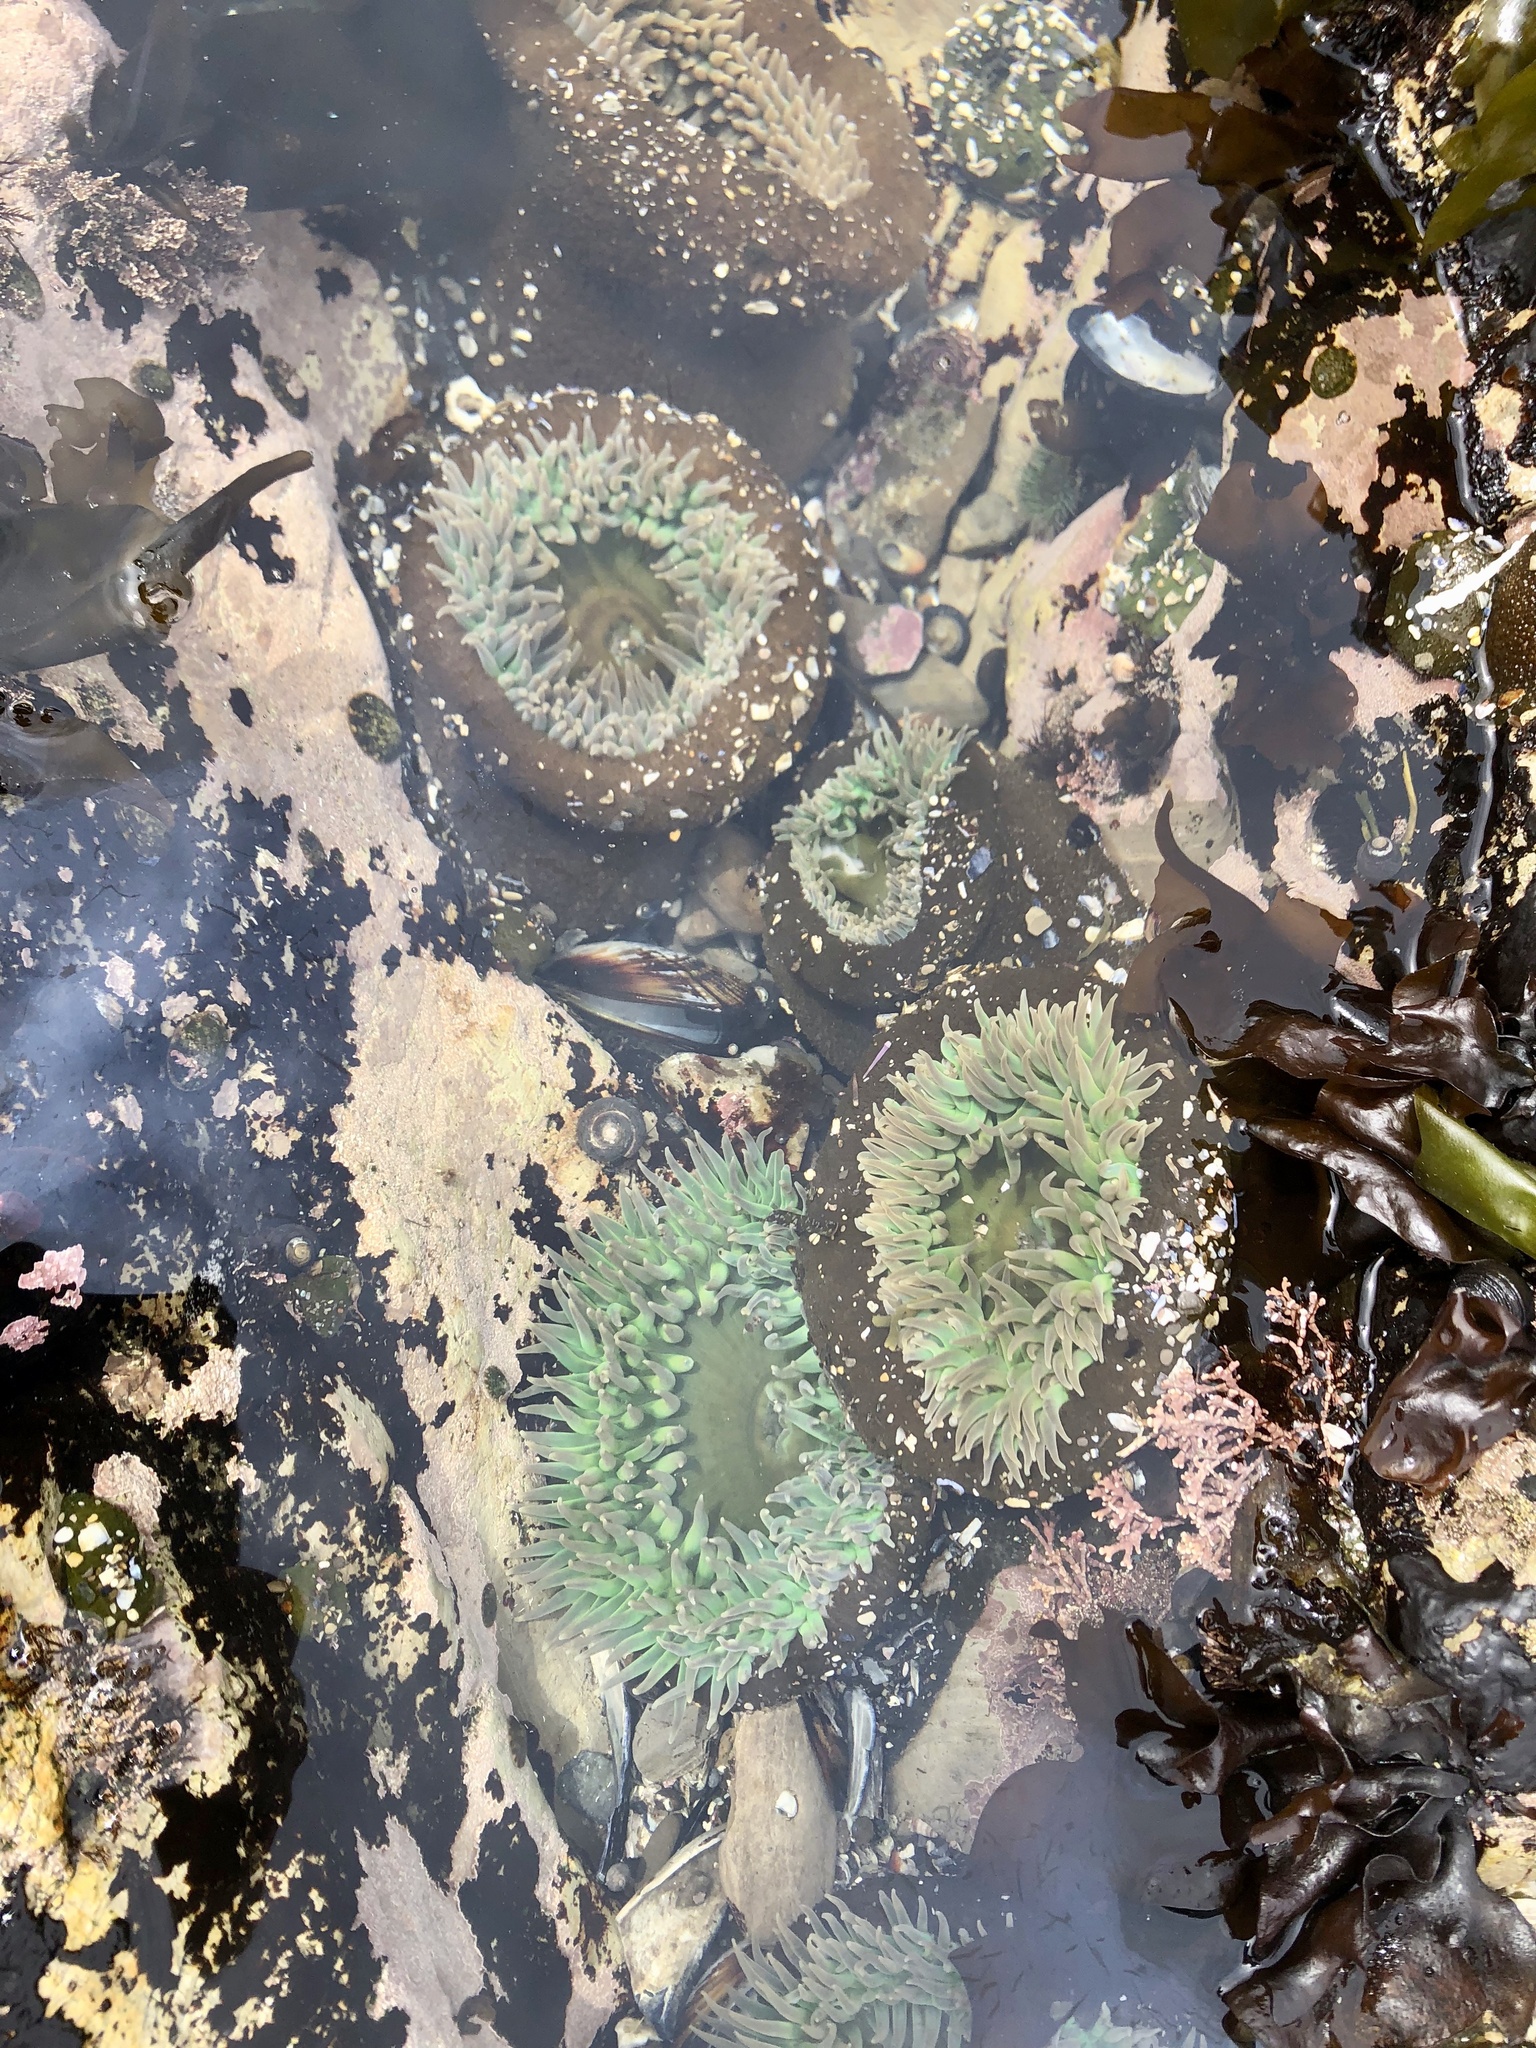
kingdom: Animalia
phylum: Cnidaria
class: Anthozoa
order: Actiniaria
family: Actiniidae
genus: Anthopleura
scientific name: Anthopleura xanthogrammica
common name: Giant green anemone
